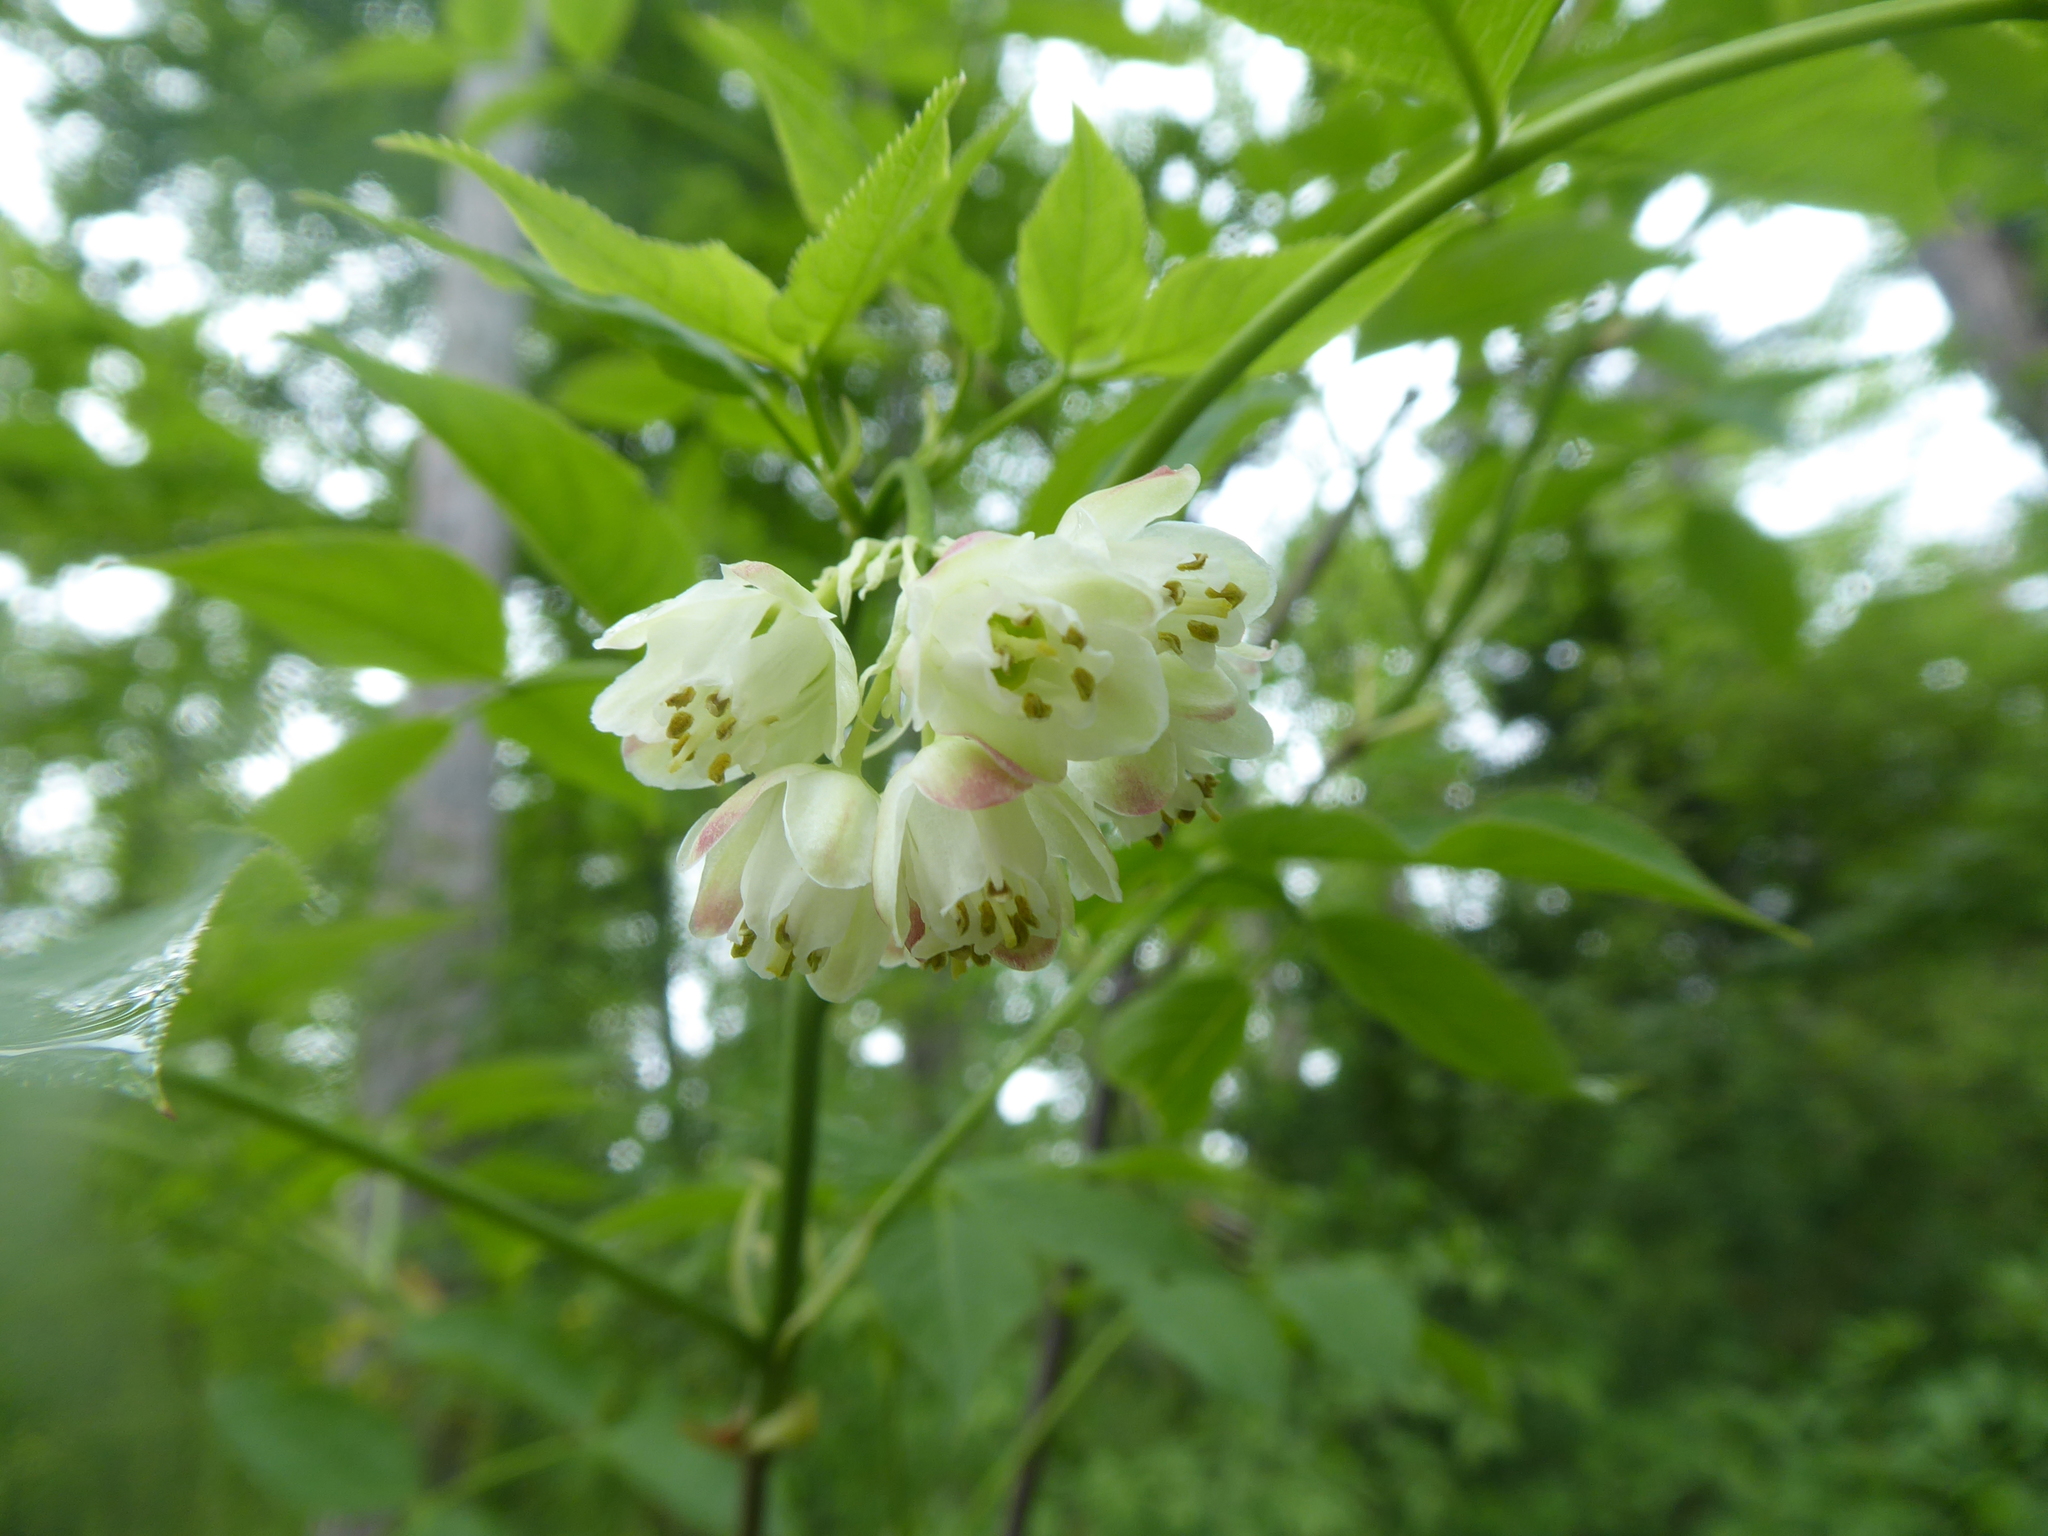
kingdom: Plantae
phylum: Tracheophyta
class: Magnoliopsida
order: Crossosomatales
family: Staphyleaceae
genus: Staphylea
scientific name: Staphylea pinnata
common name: Bladdernut
